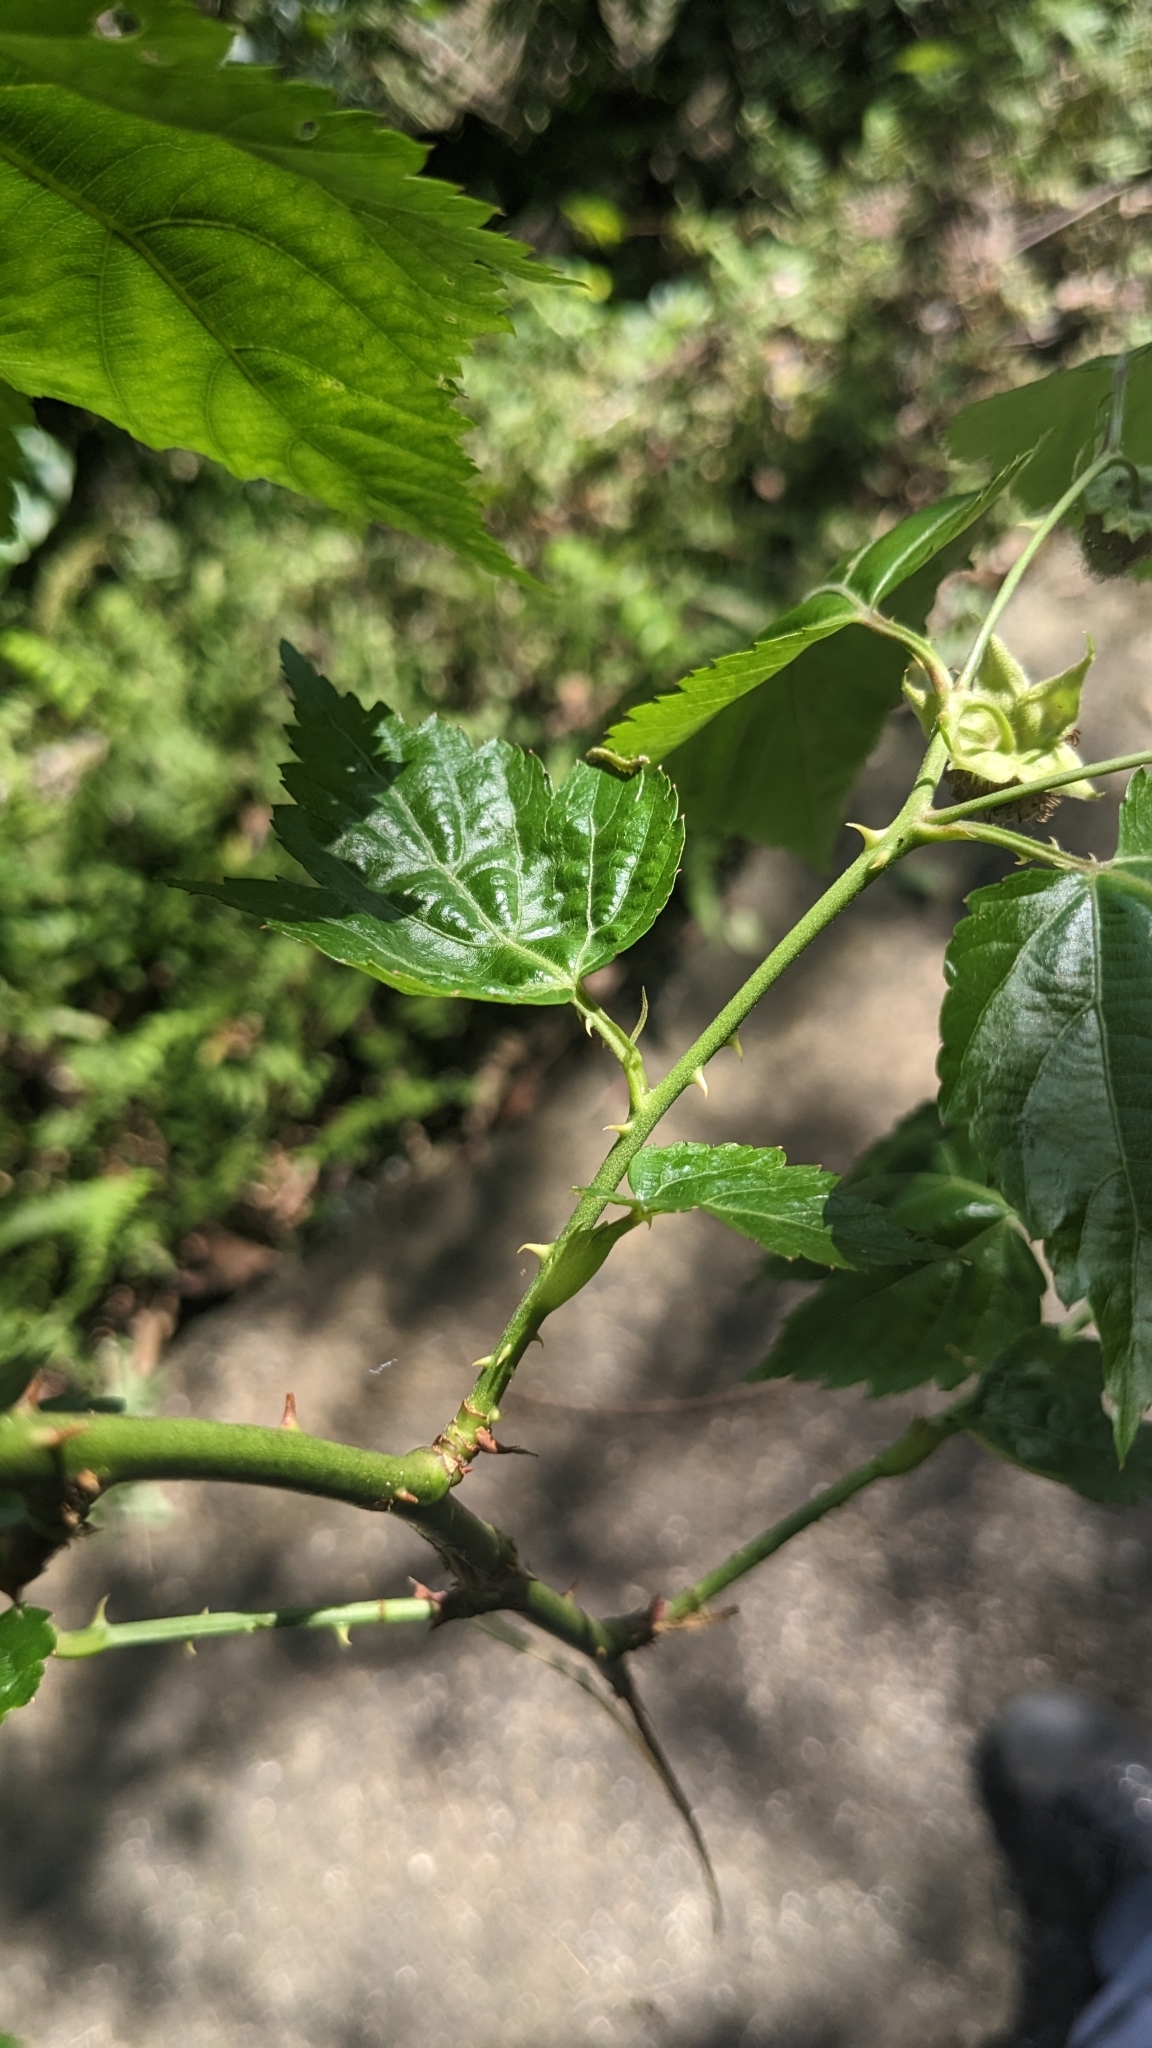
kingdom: Plantae
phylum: Tracheophyta
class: Magnoliopsida
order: Rosales
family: Rosaceae
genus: Rubus
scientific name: Rubus corchorifolius
